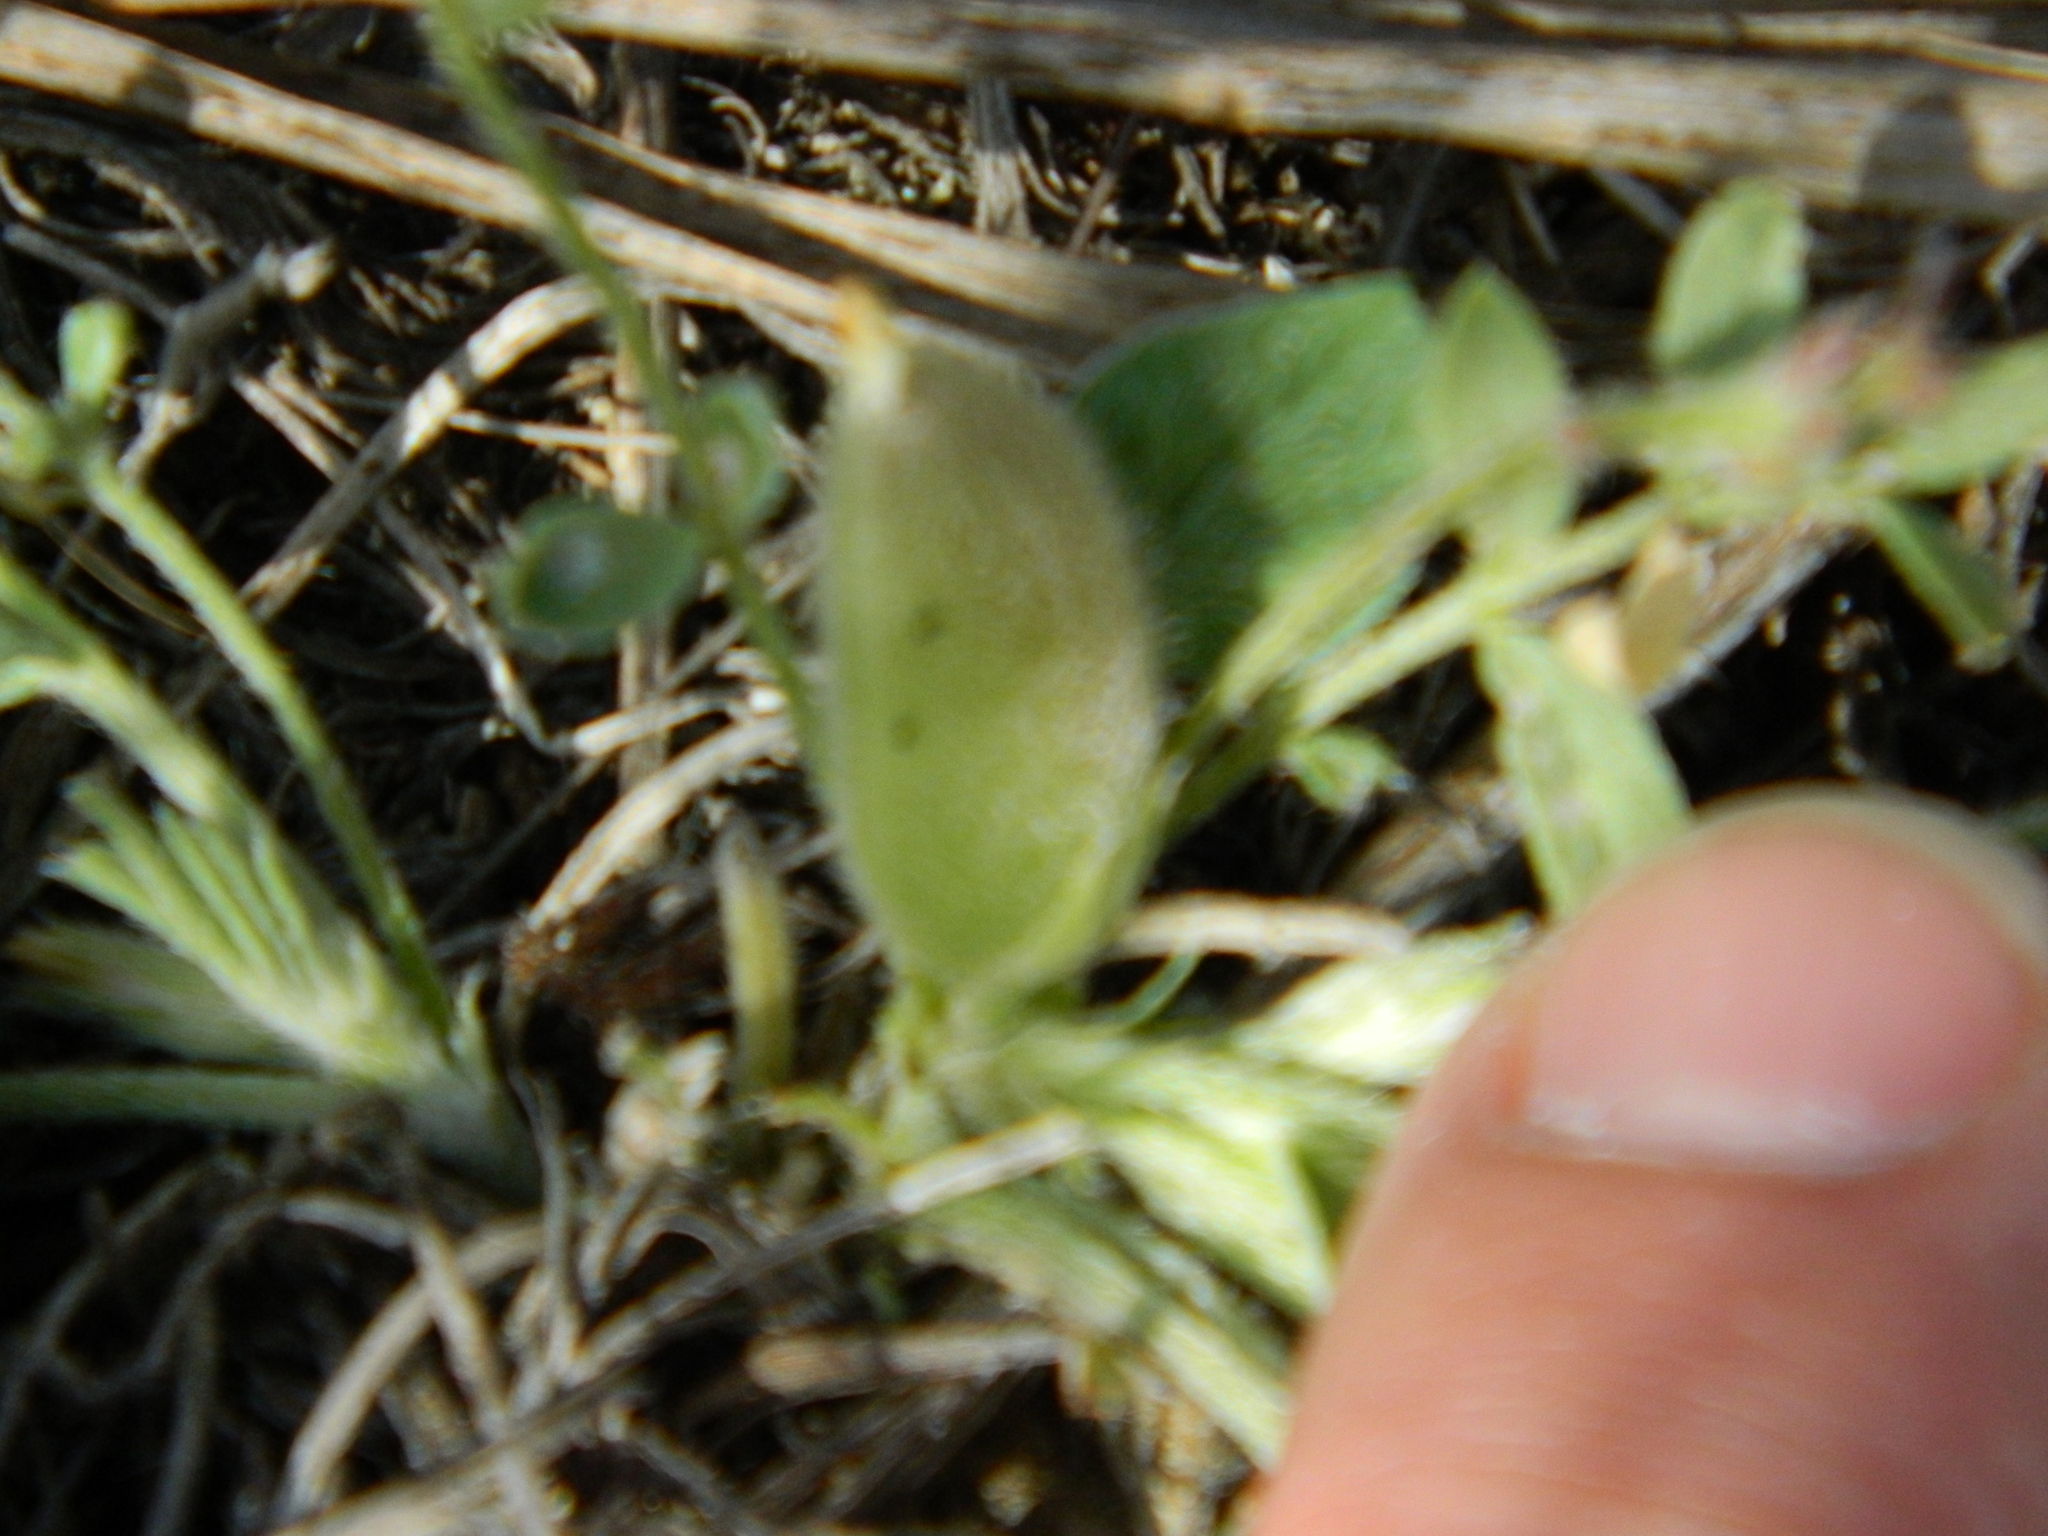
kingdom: Plantae
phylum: Tracheophyta
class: Magnoliopsida
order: Fabales
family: Fabaceae
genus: Astragalus
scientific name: Astragalus lotiflorus
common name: Lotus milk-vetch
